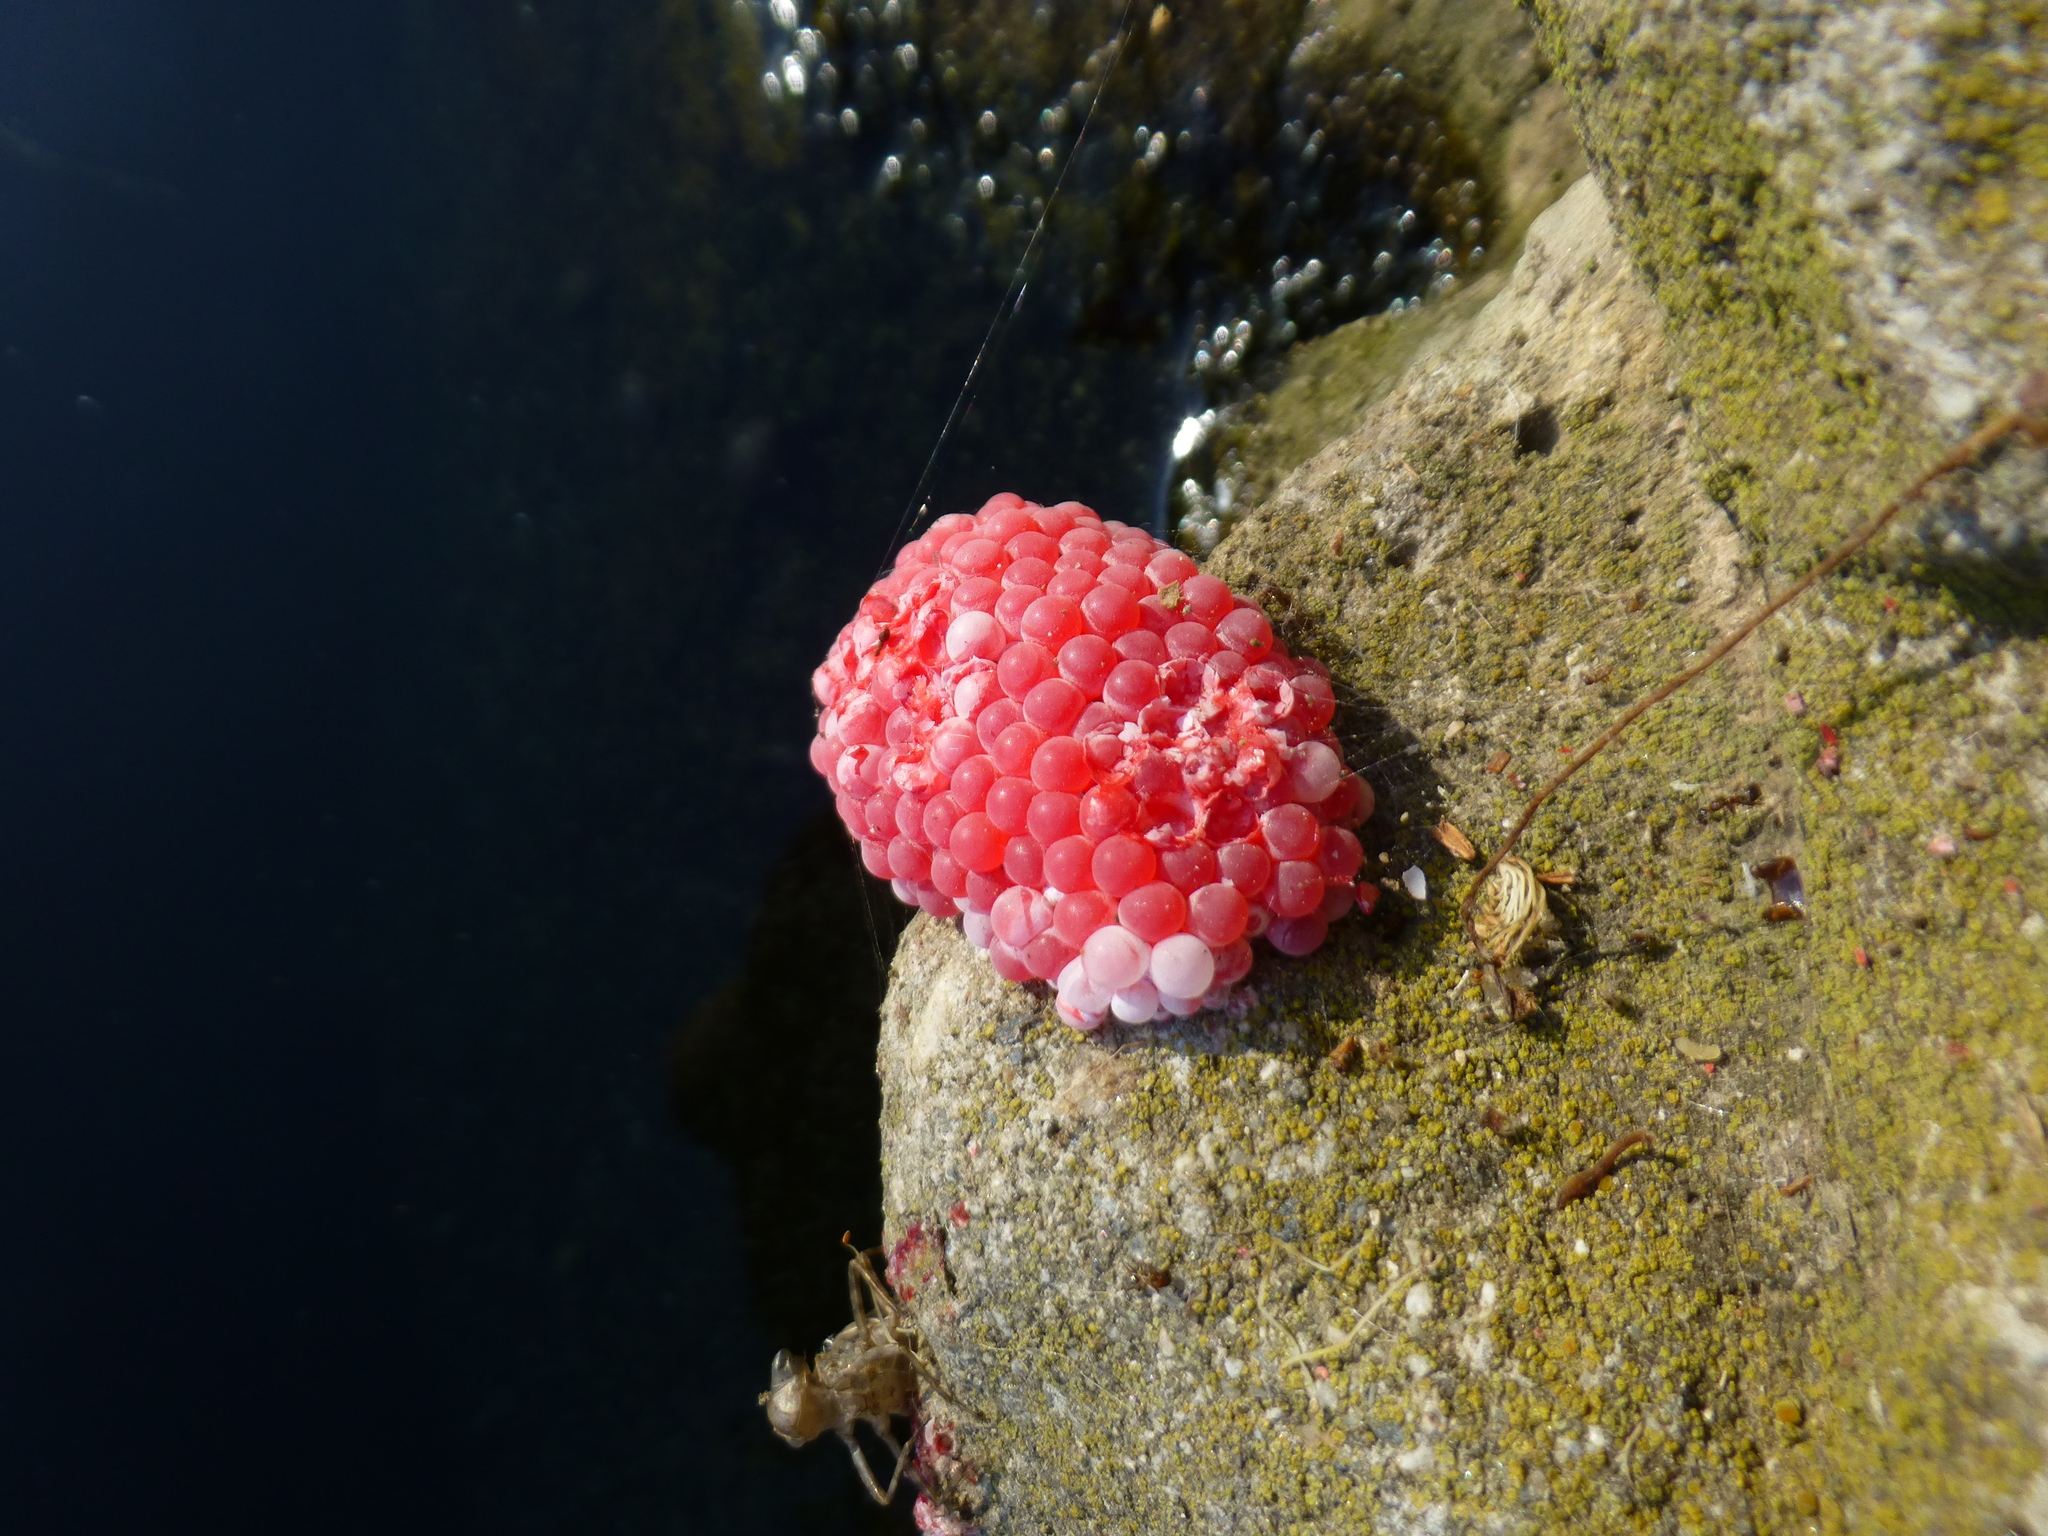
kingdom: Animalia
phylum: Mollusca
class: Gastropoda
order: Architaenioglossa
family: Ampullariidae
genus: Pomacea
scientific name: Pomacea canaliculata
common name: Channeled applesnail
